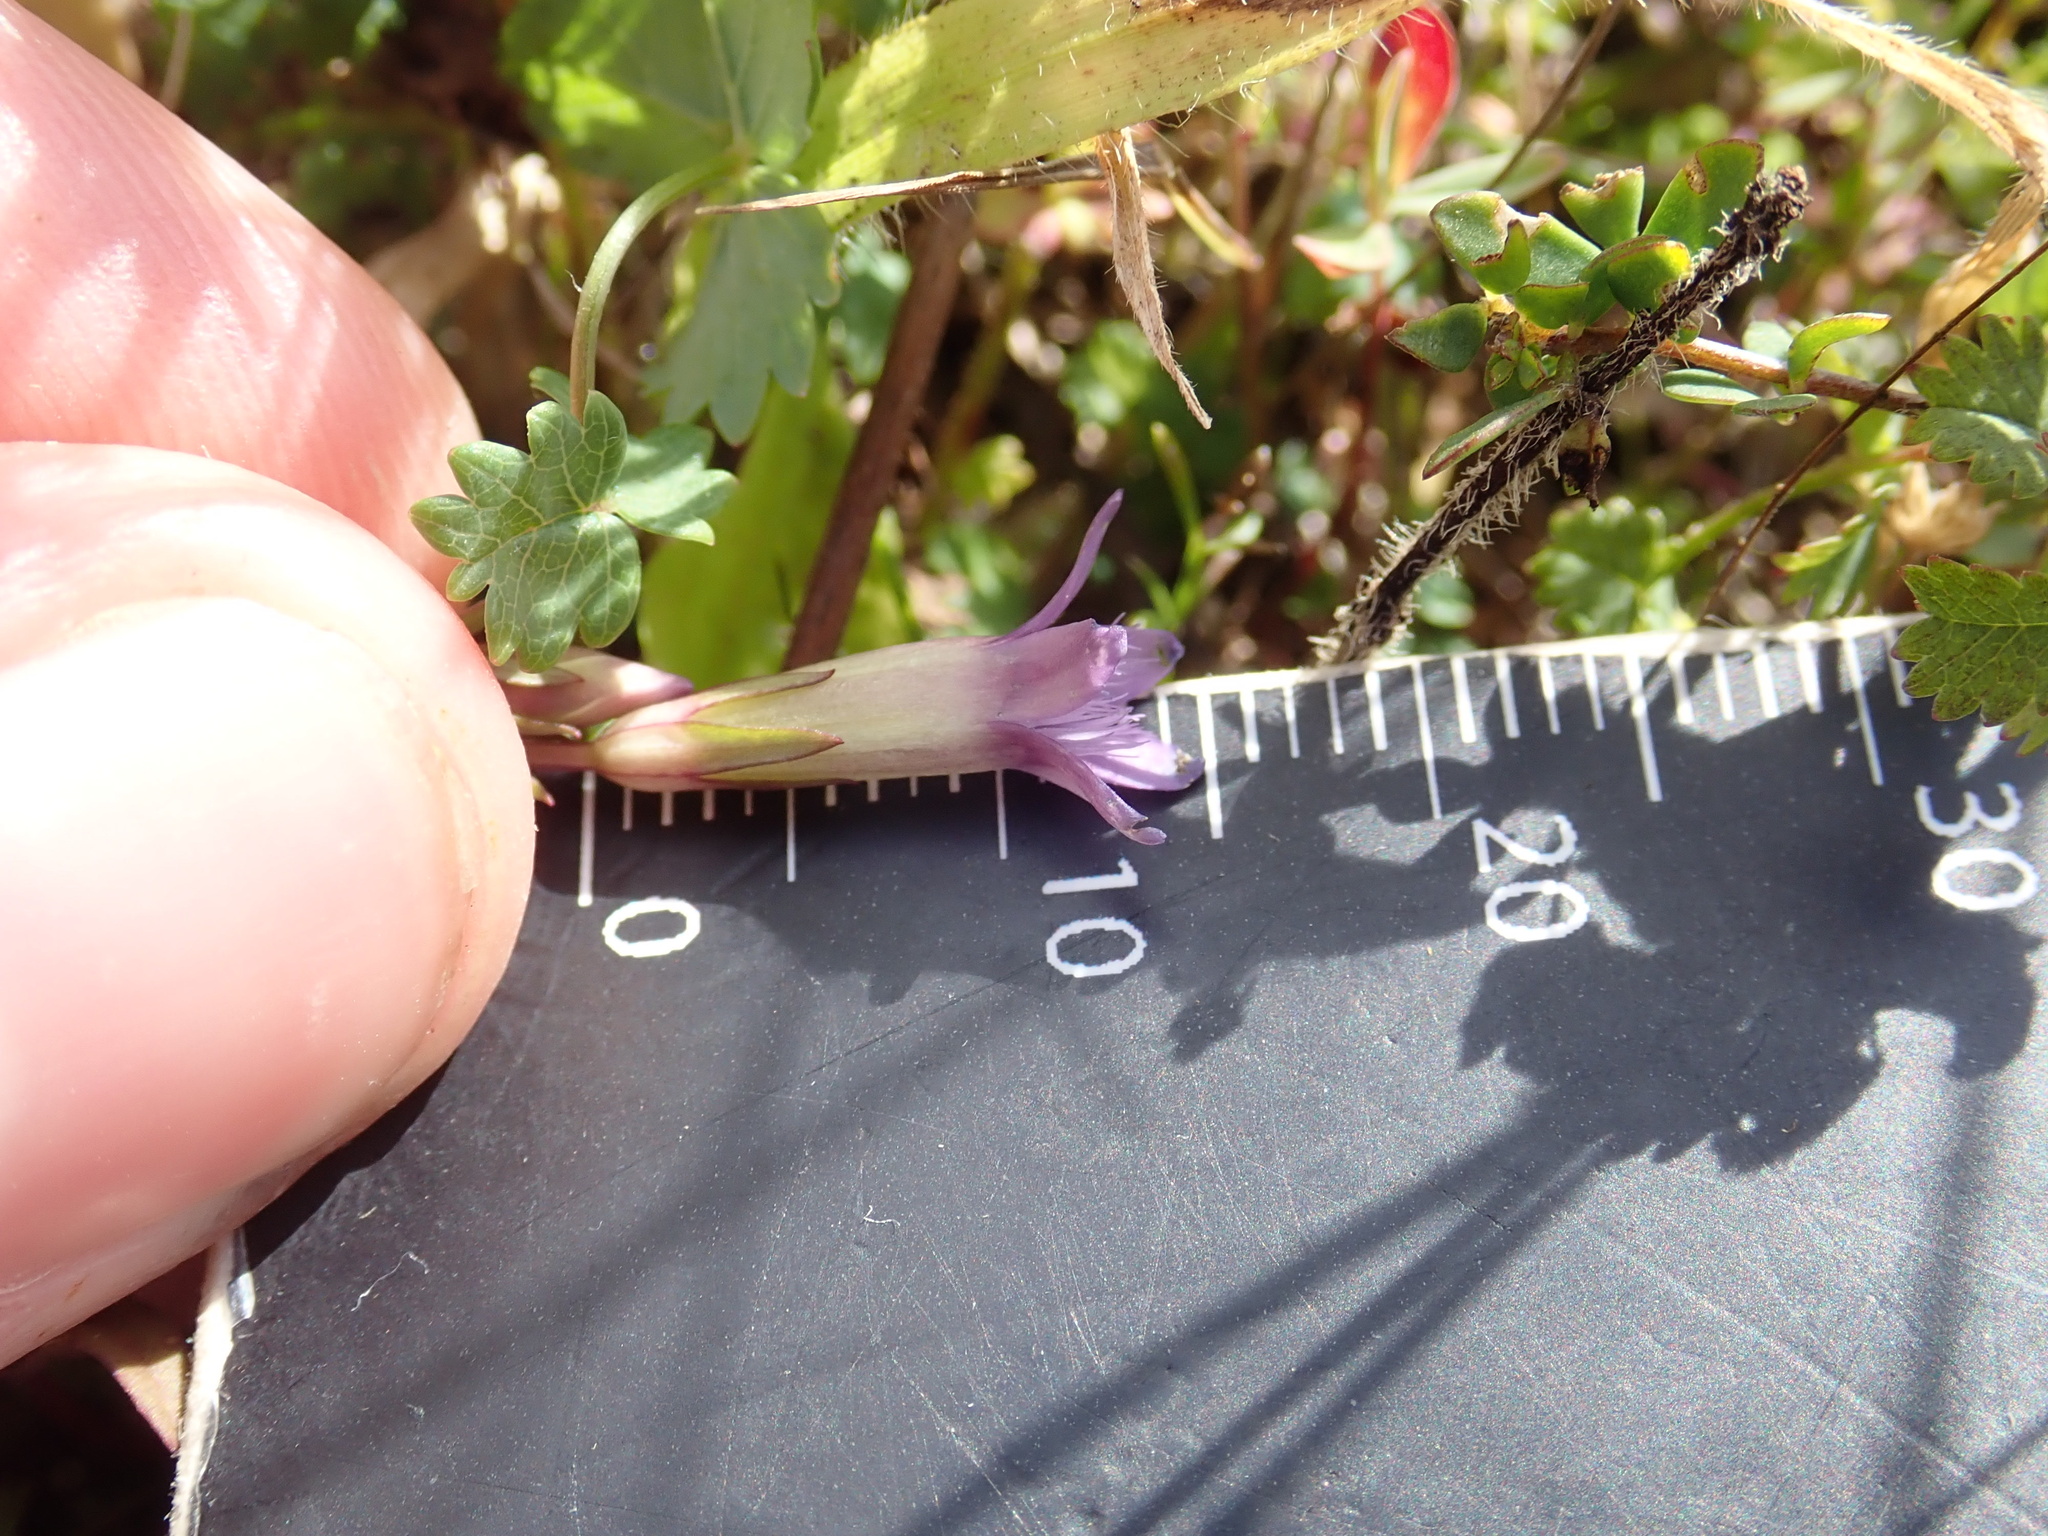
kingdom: Plantae
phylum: Tracheophyta
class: Magnoliopsida
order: Gentianales
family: Gentianaceae
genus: Gentianella
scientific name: Gentianella amarella
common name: Autumn gentian
